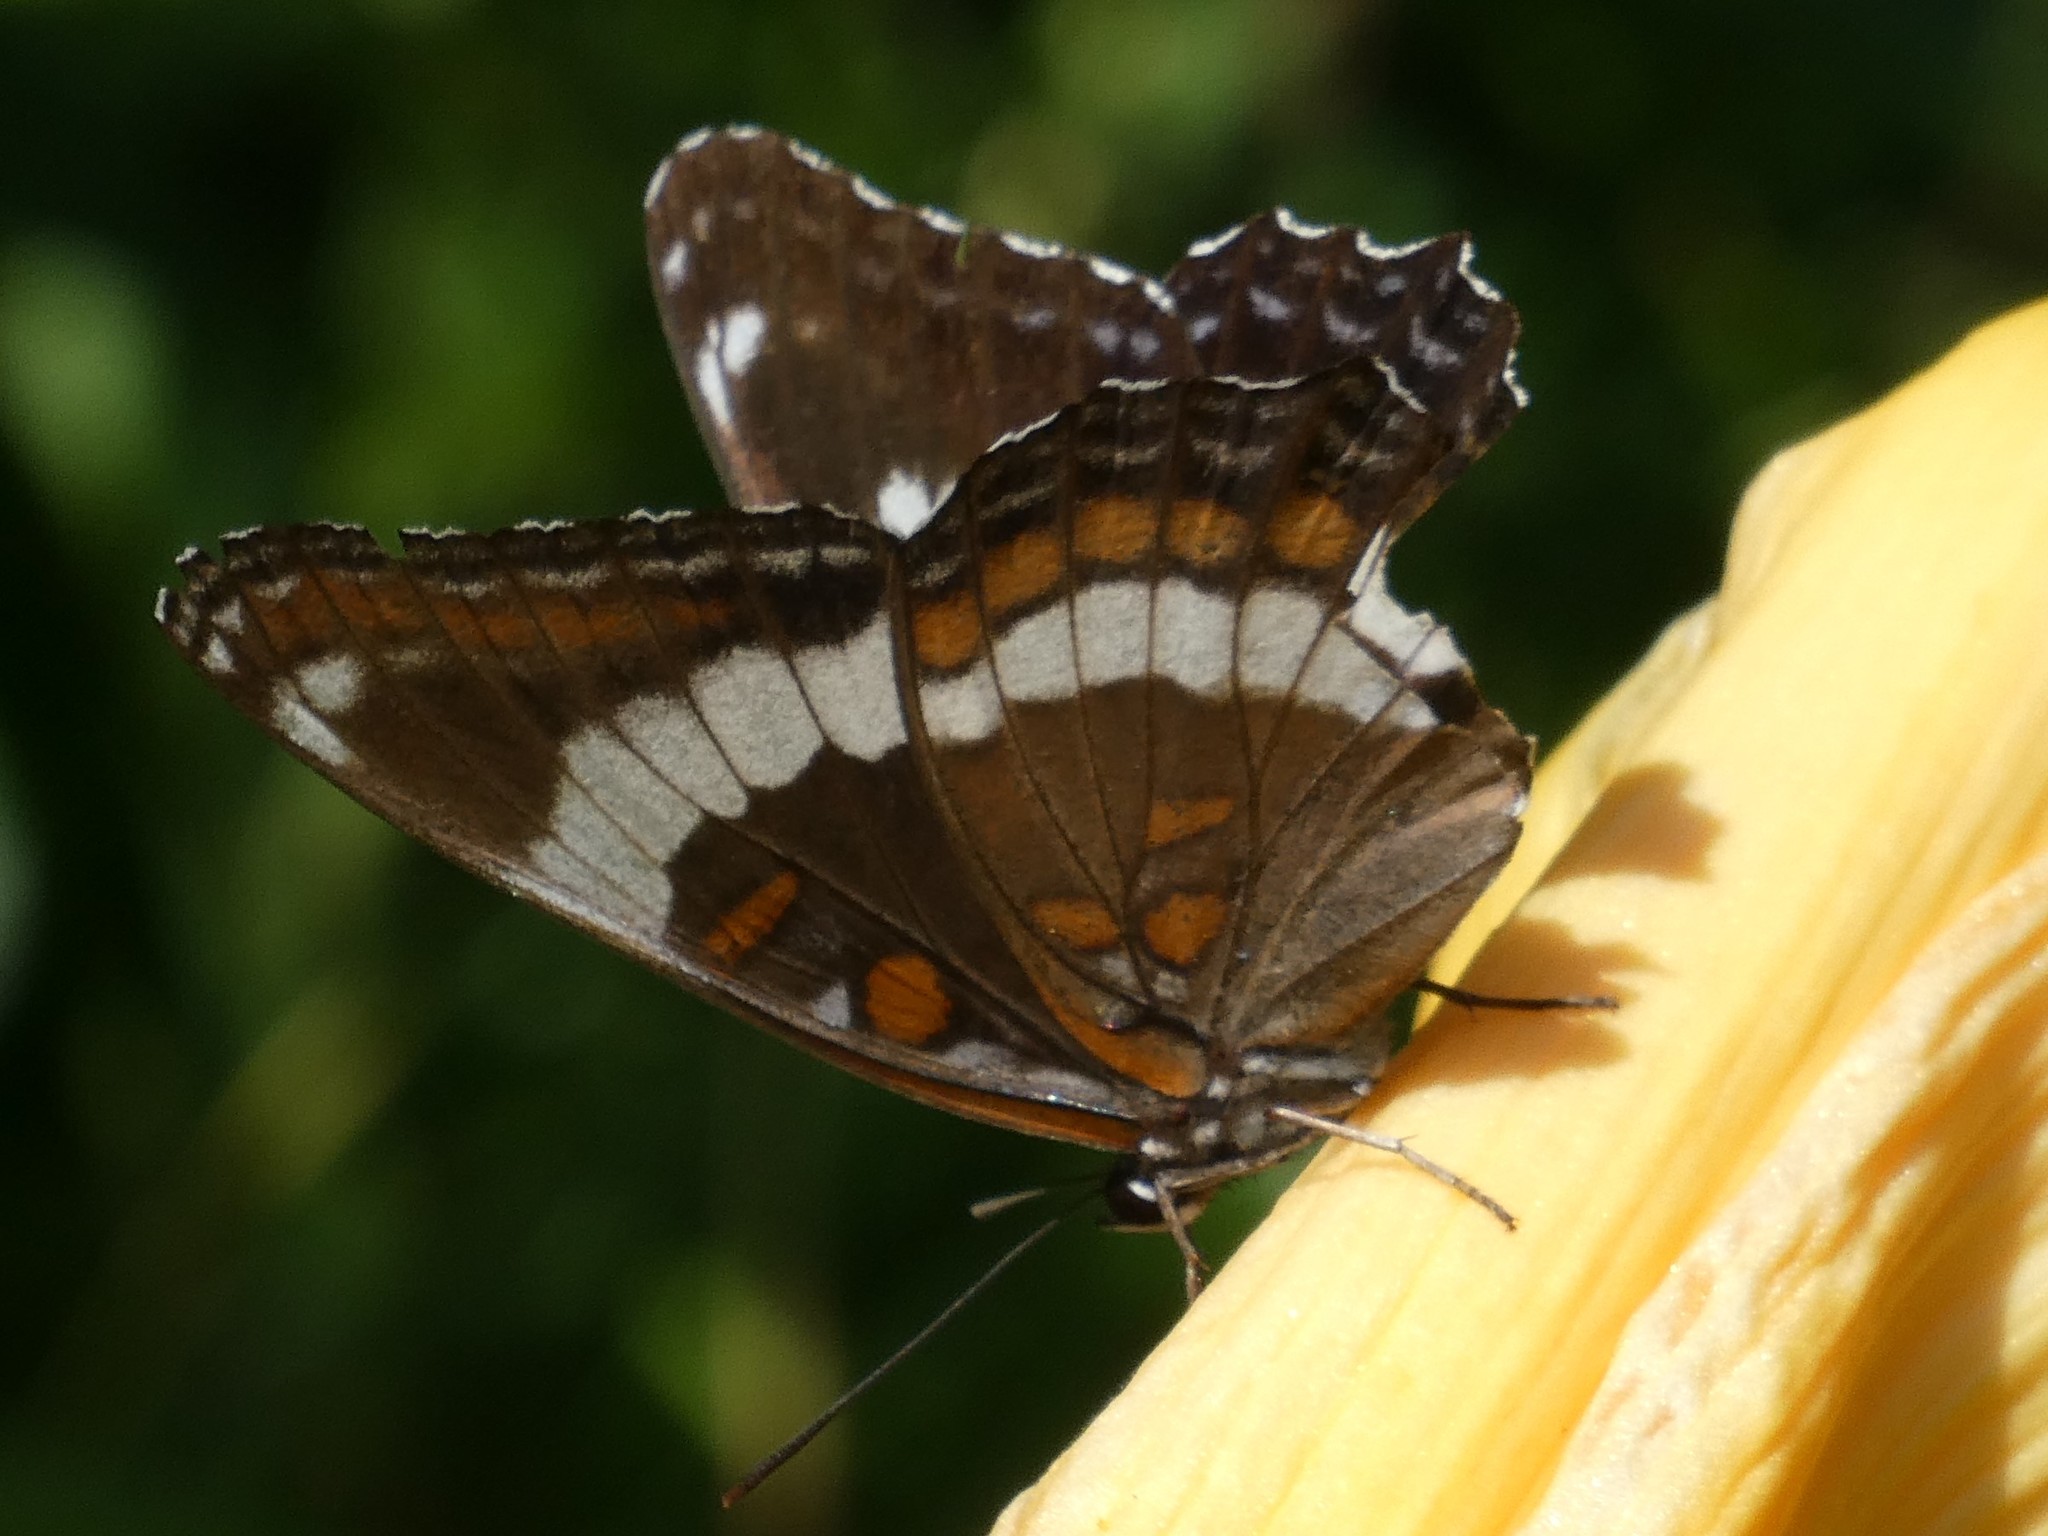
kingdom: Animalia
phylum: Arthropoda
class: Insecta
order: Lepidoptera
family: Nymphalidae
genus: Limenitis
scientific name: Limenitis arthemis
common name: Red-spotted admiral
